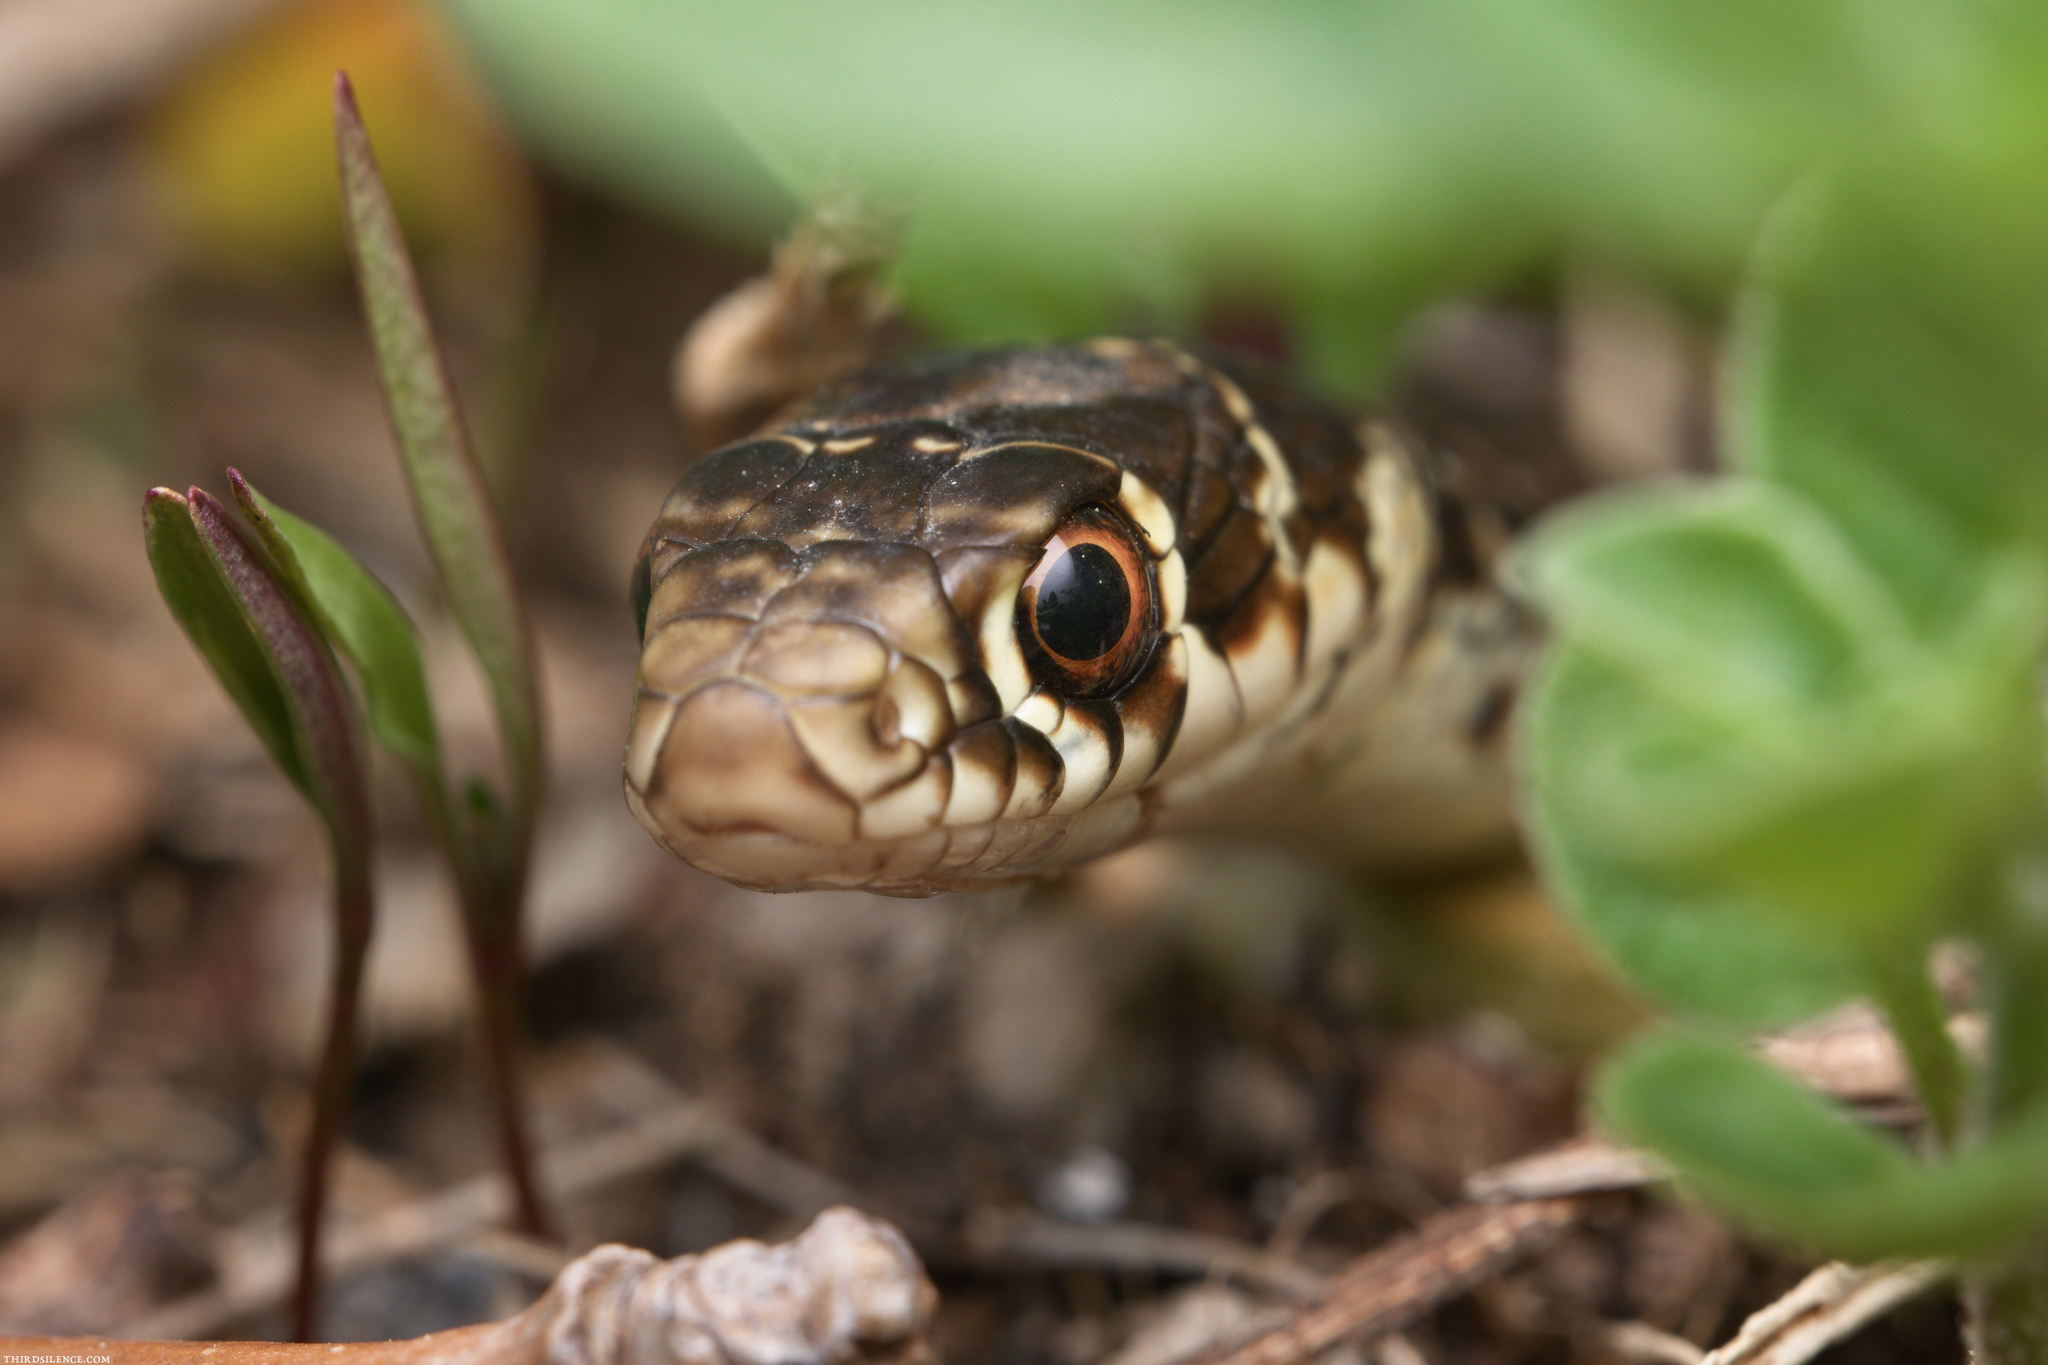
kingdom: Animalia
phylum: Chordata
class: Squamata
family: Colubridae
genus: Hierophis
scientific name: Hierophis viridiflavus
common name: Green whip snake
